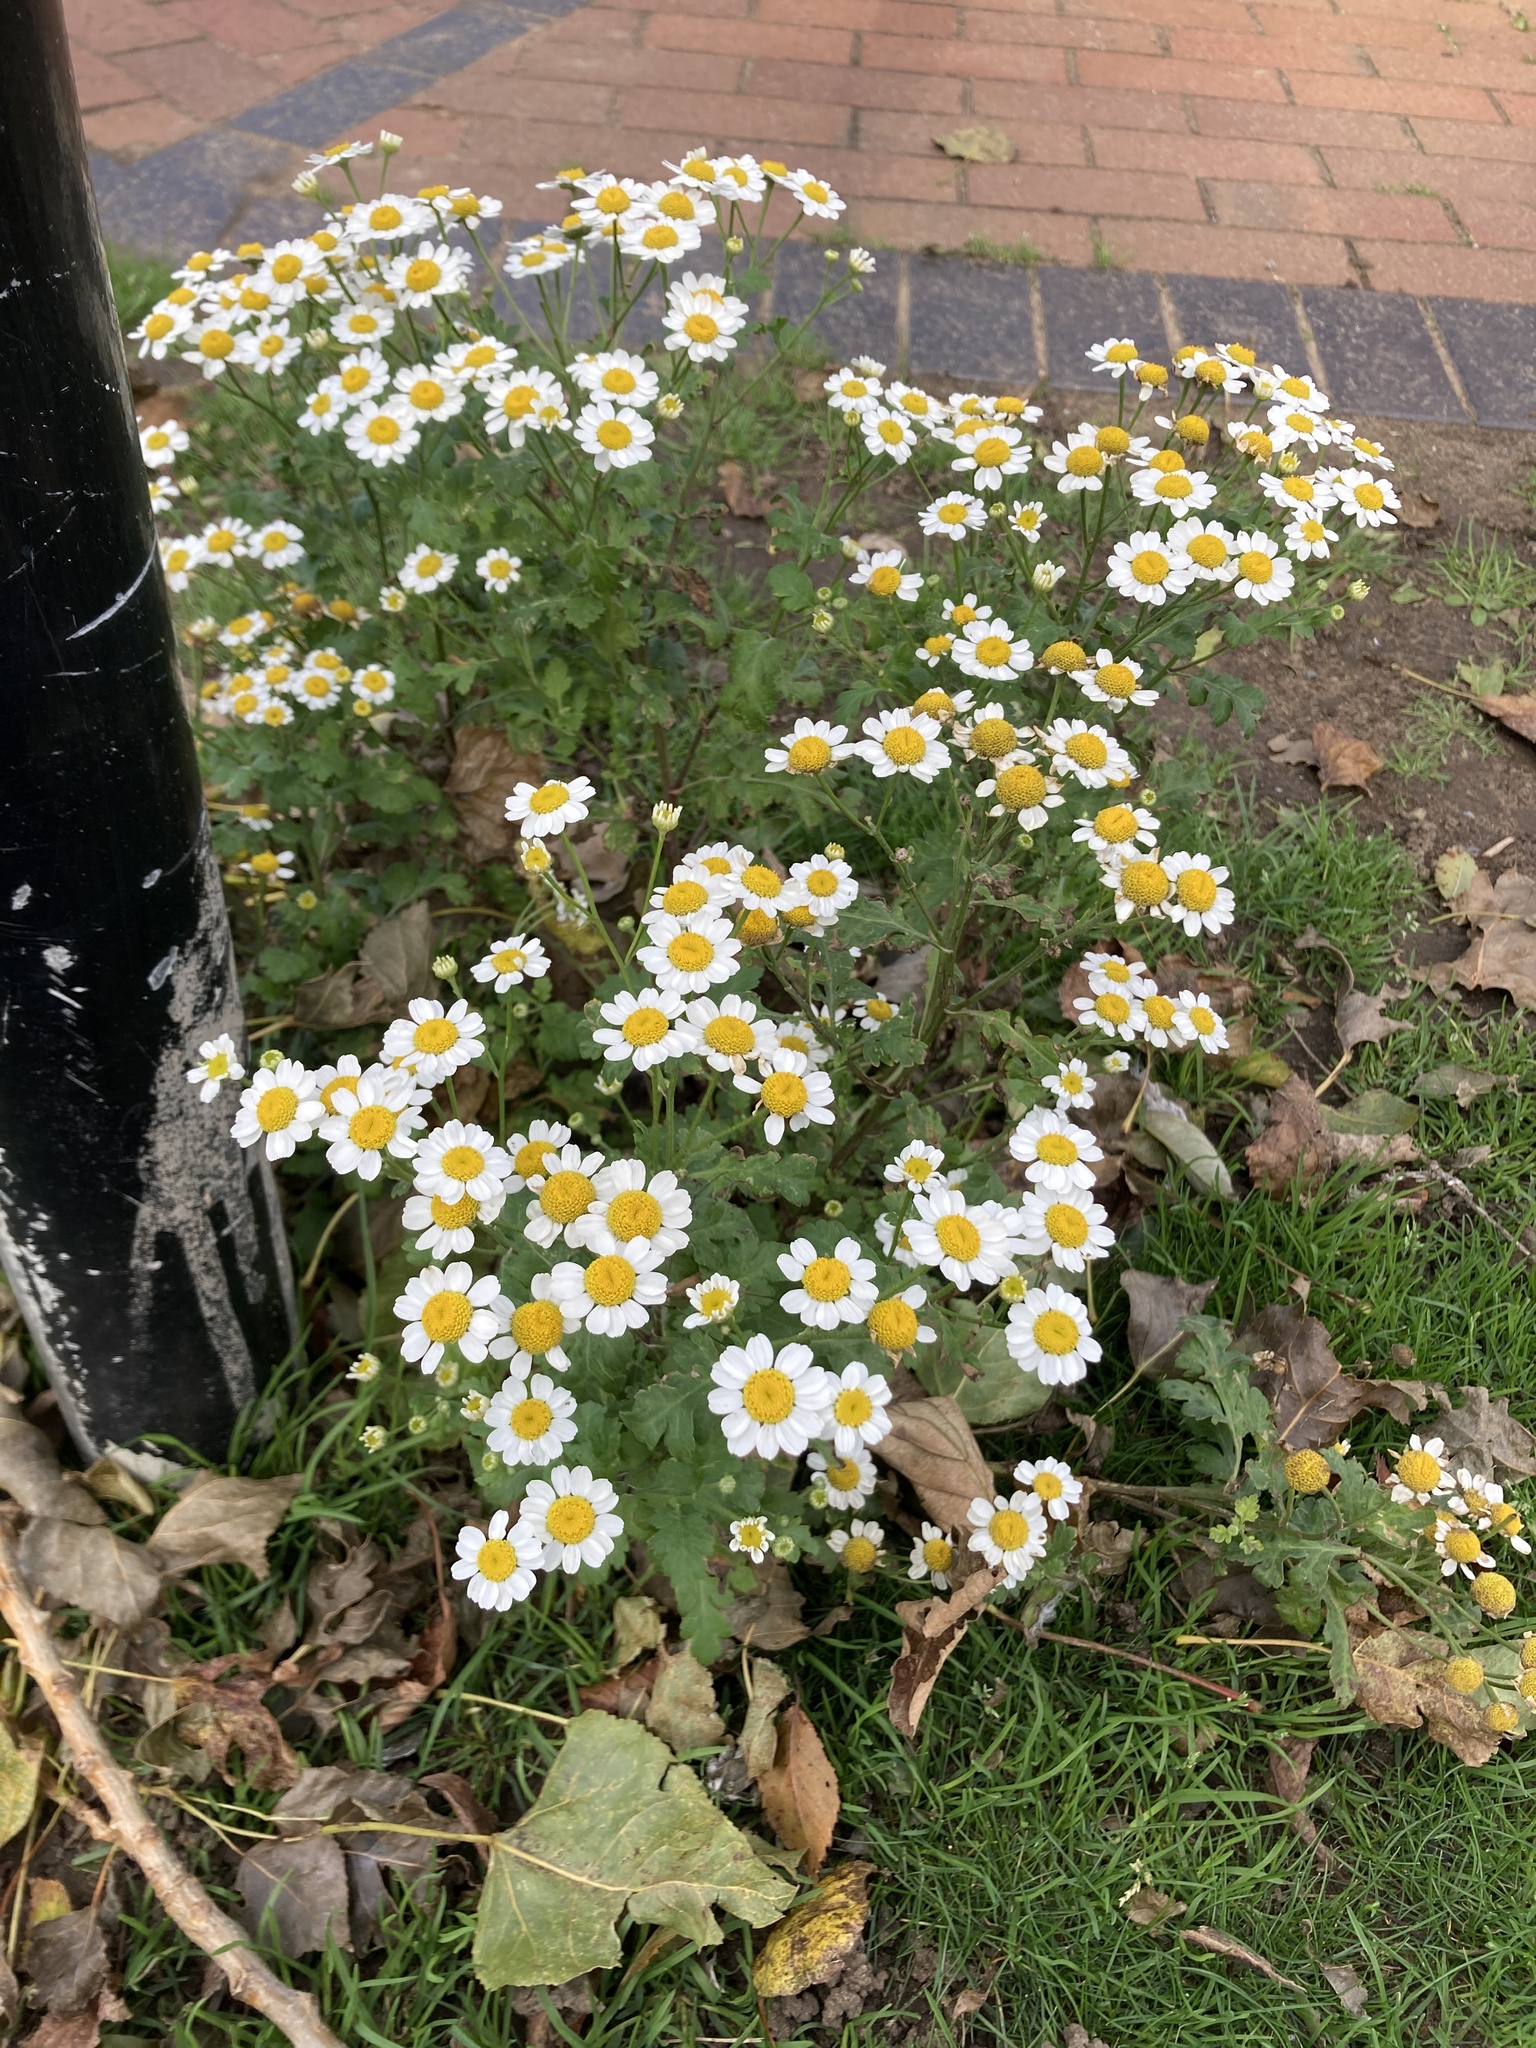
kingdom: Plantae
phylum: Tracheophyta
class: Magnoliopsida
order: Asterales
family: Asteraceae
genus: Tanacetum
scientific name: Tanacetum parthenium
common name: Feverfew
